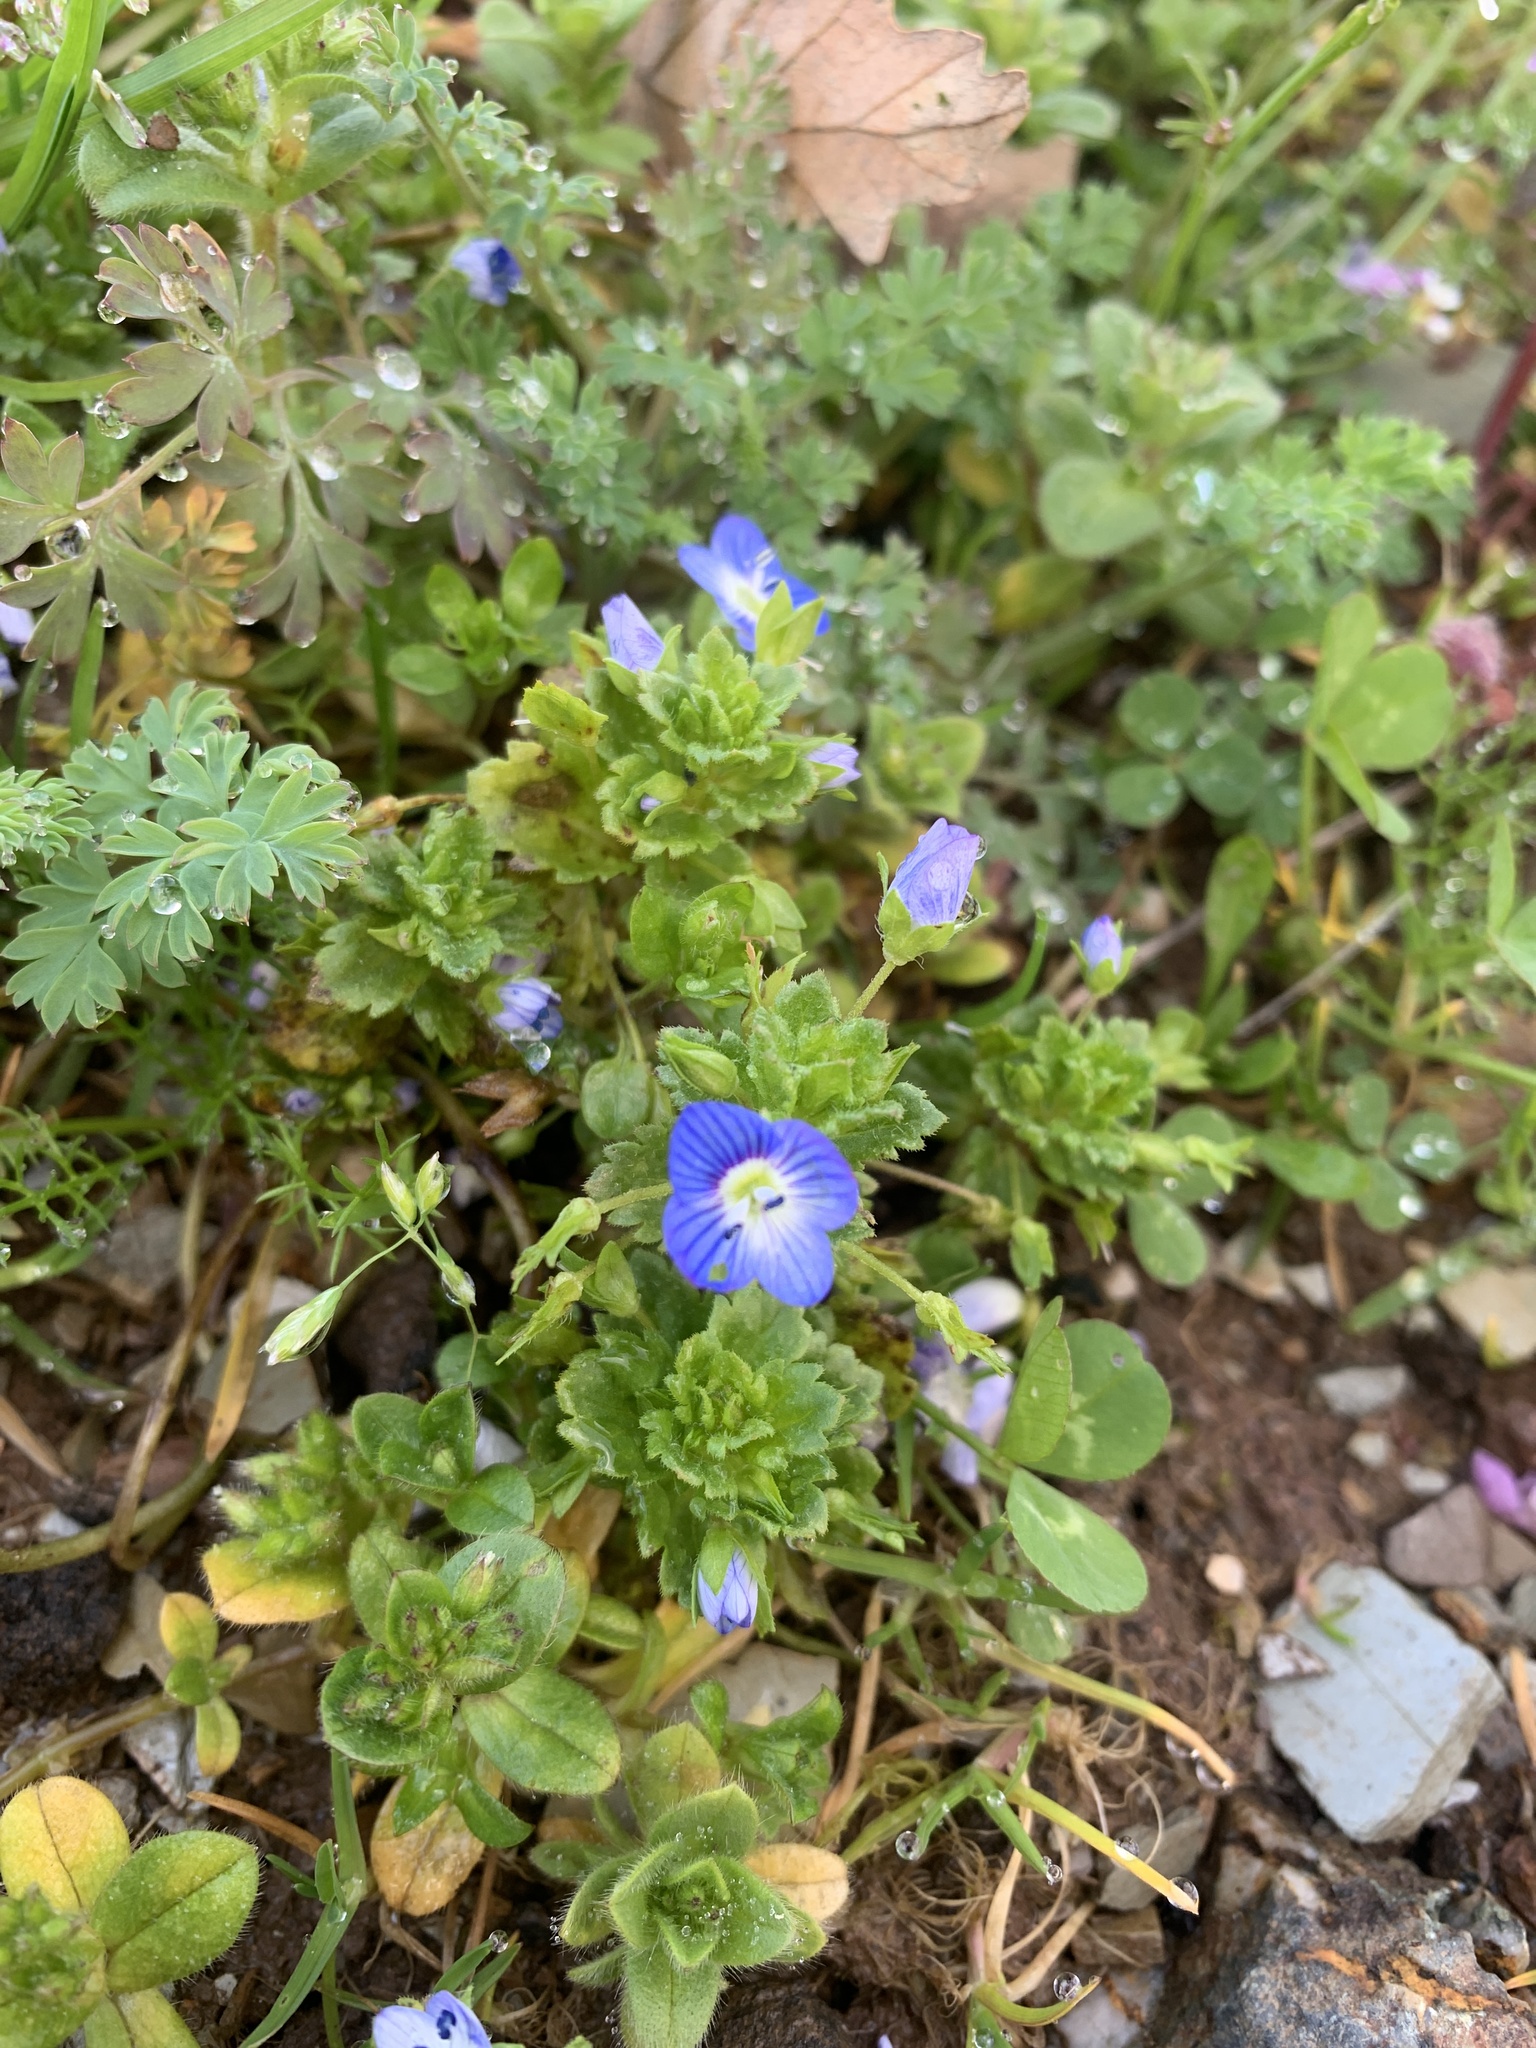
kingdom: Plantae
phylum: Tracheophyta
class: Magnoliopsida
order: Lamiales
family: Plantaginaceae
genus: Veronica
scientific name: Veronica persica
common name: Common field-speedwell
